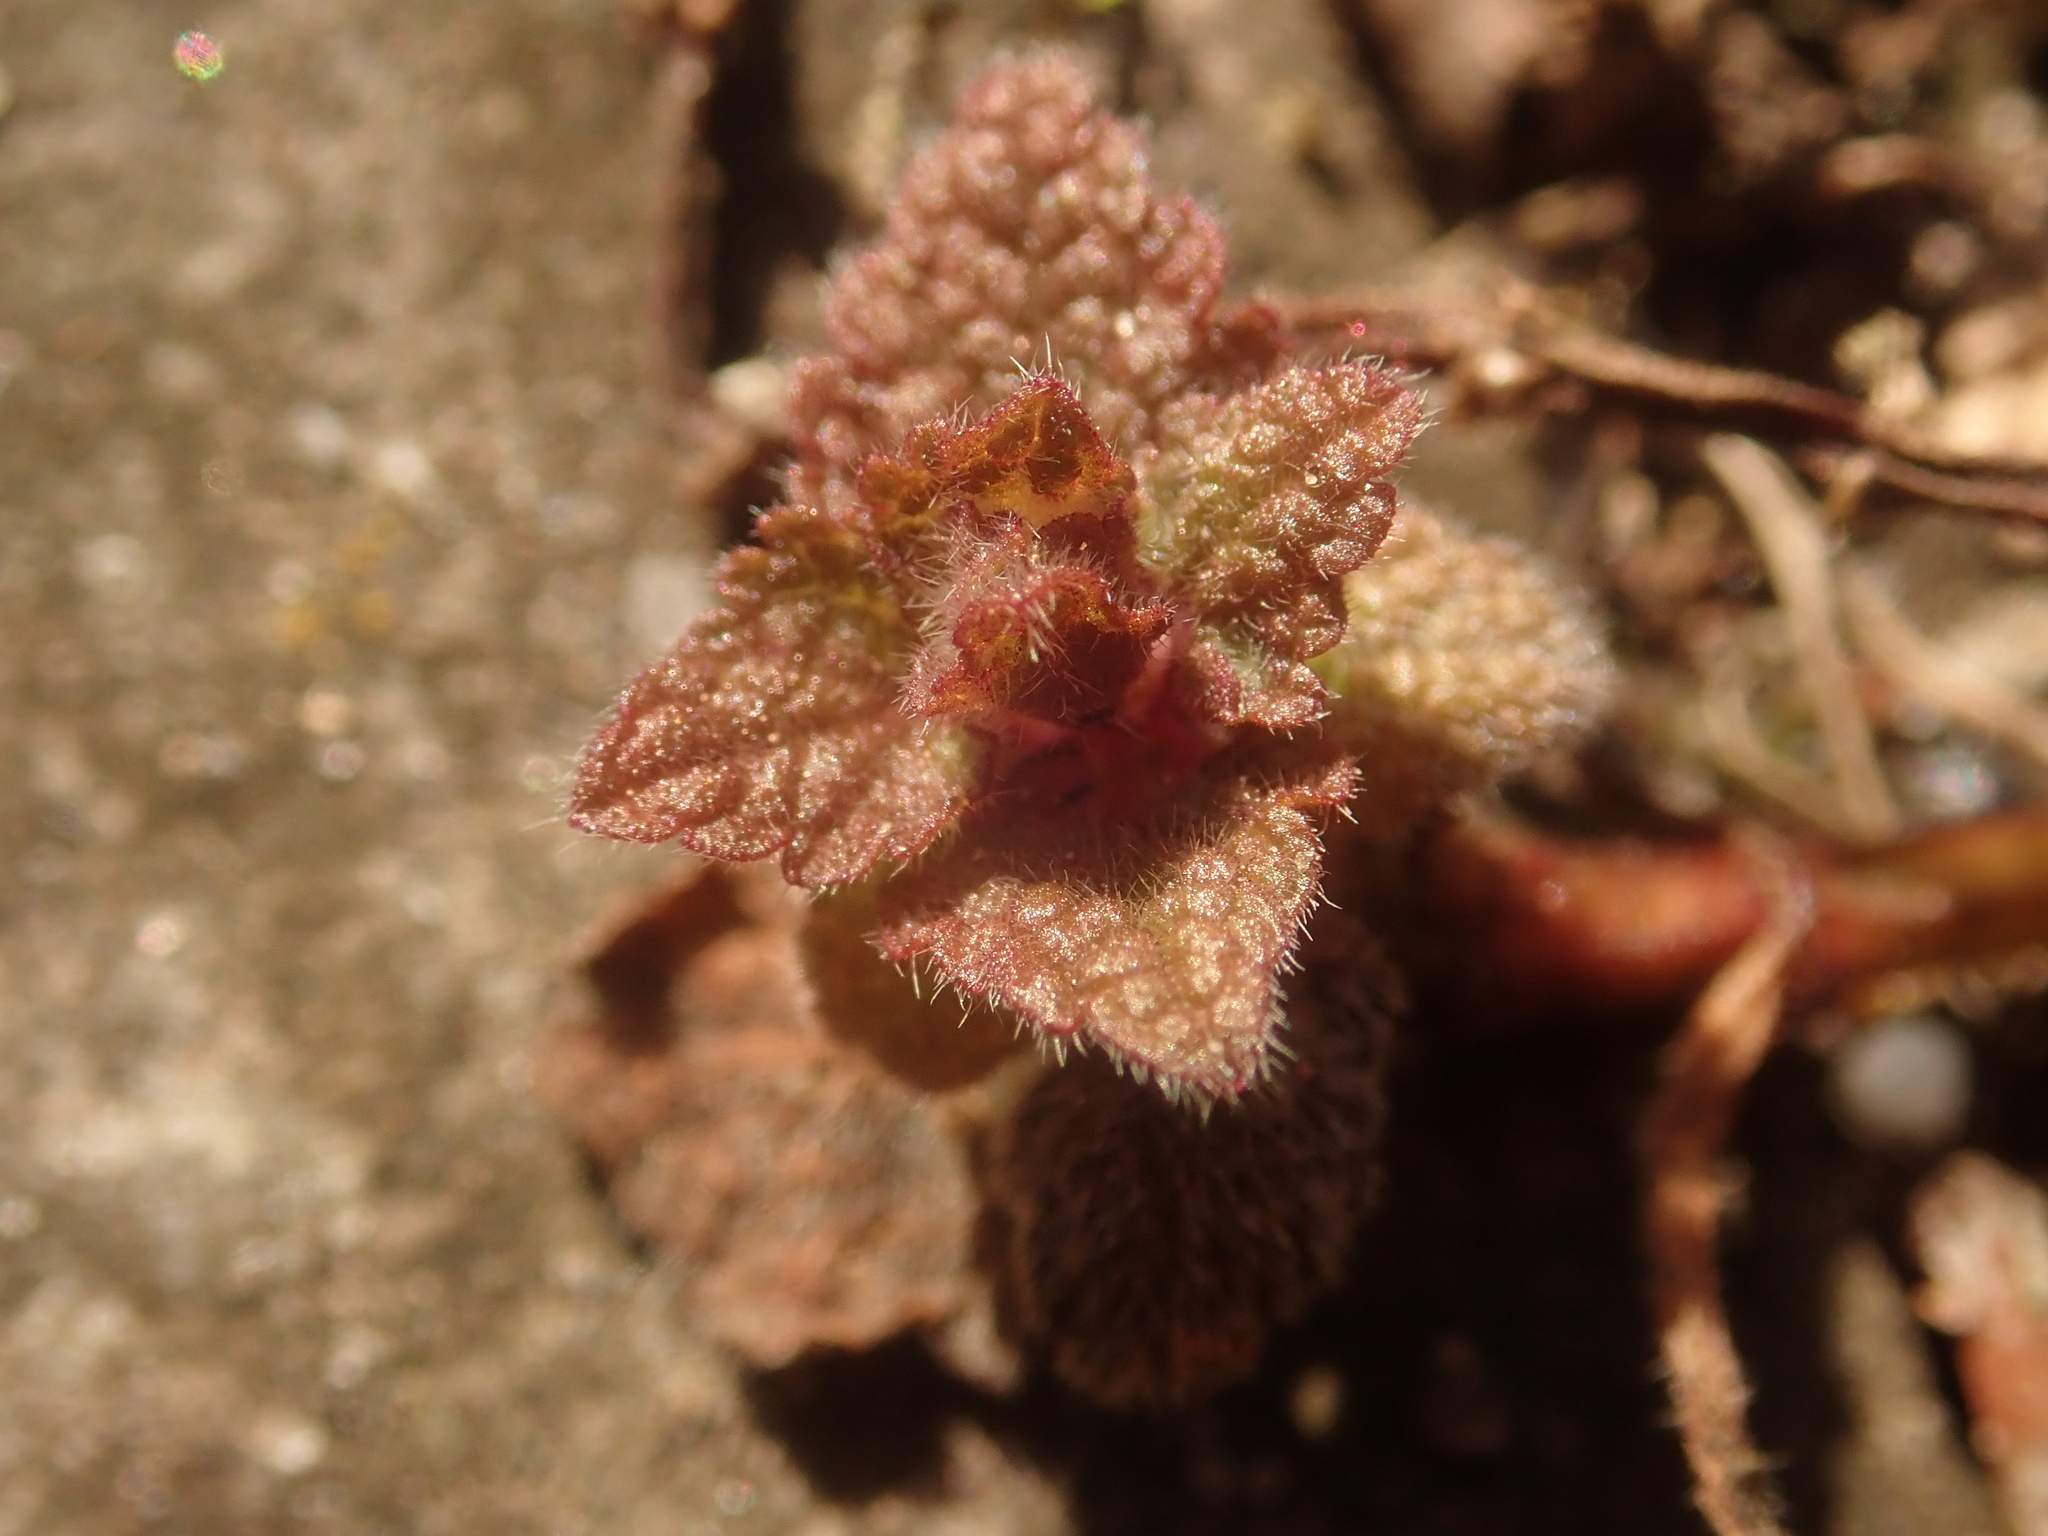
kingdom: Plantae
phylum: Tracheophyta
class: Magnoliopsida
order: Lamiales
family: Lamiaceae
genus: Lamium
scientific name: Lamium purpureum
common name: Red dead-nettle
